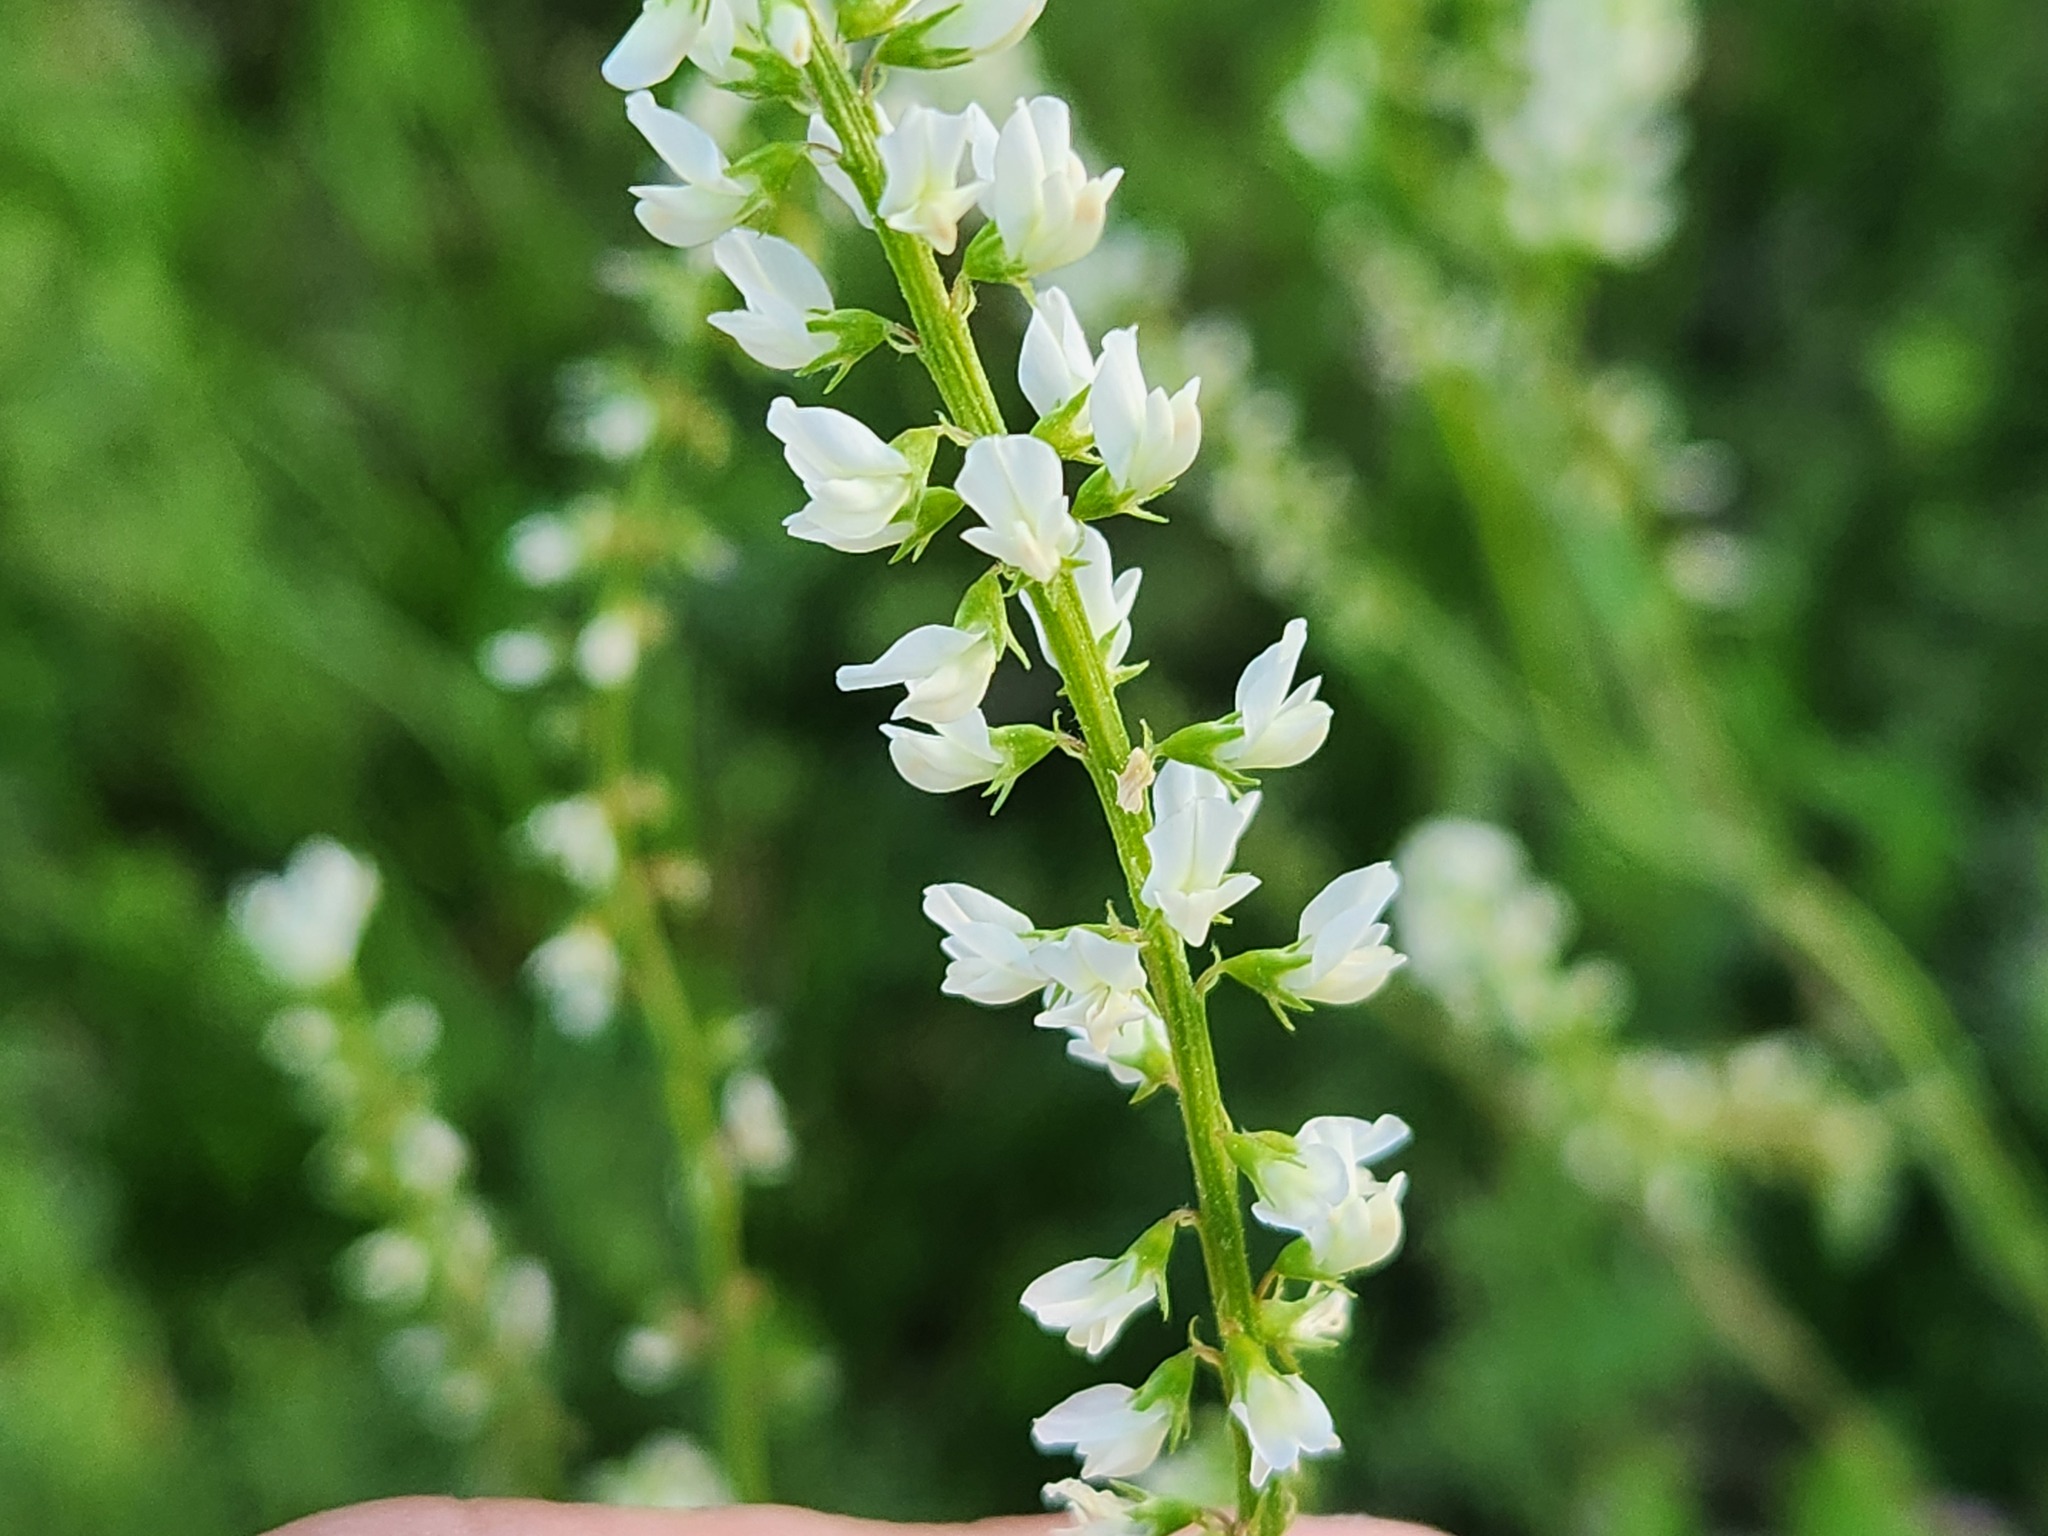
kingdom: Plantae
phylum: Tracheophyta
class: Magnoliopsida
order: Fabales
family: Fabaceae
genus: Melilotus
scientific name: Melilotus albus
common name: White melilot
